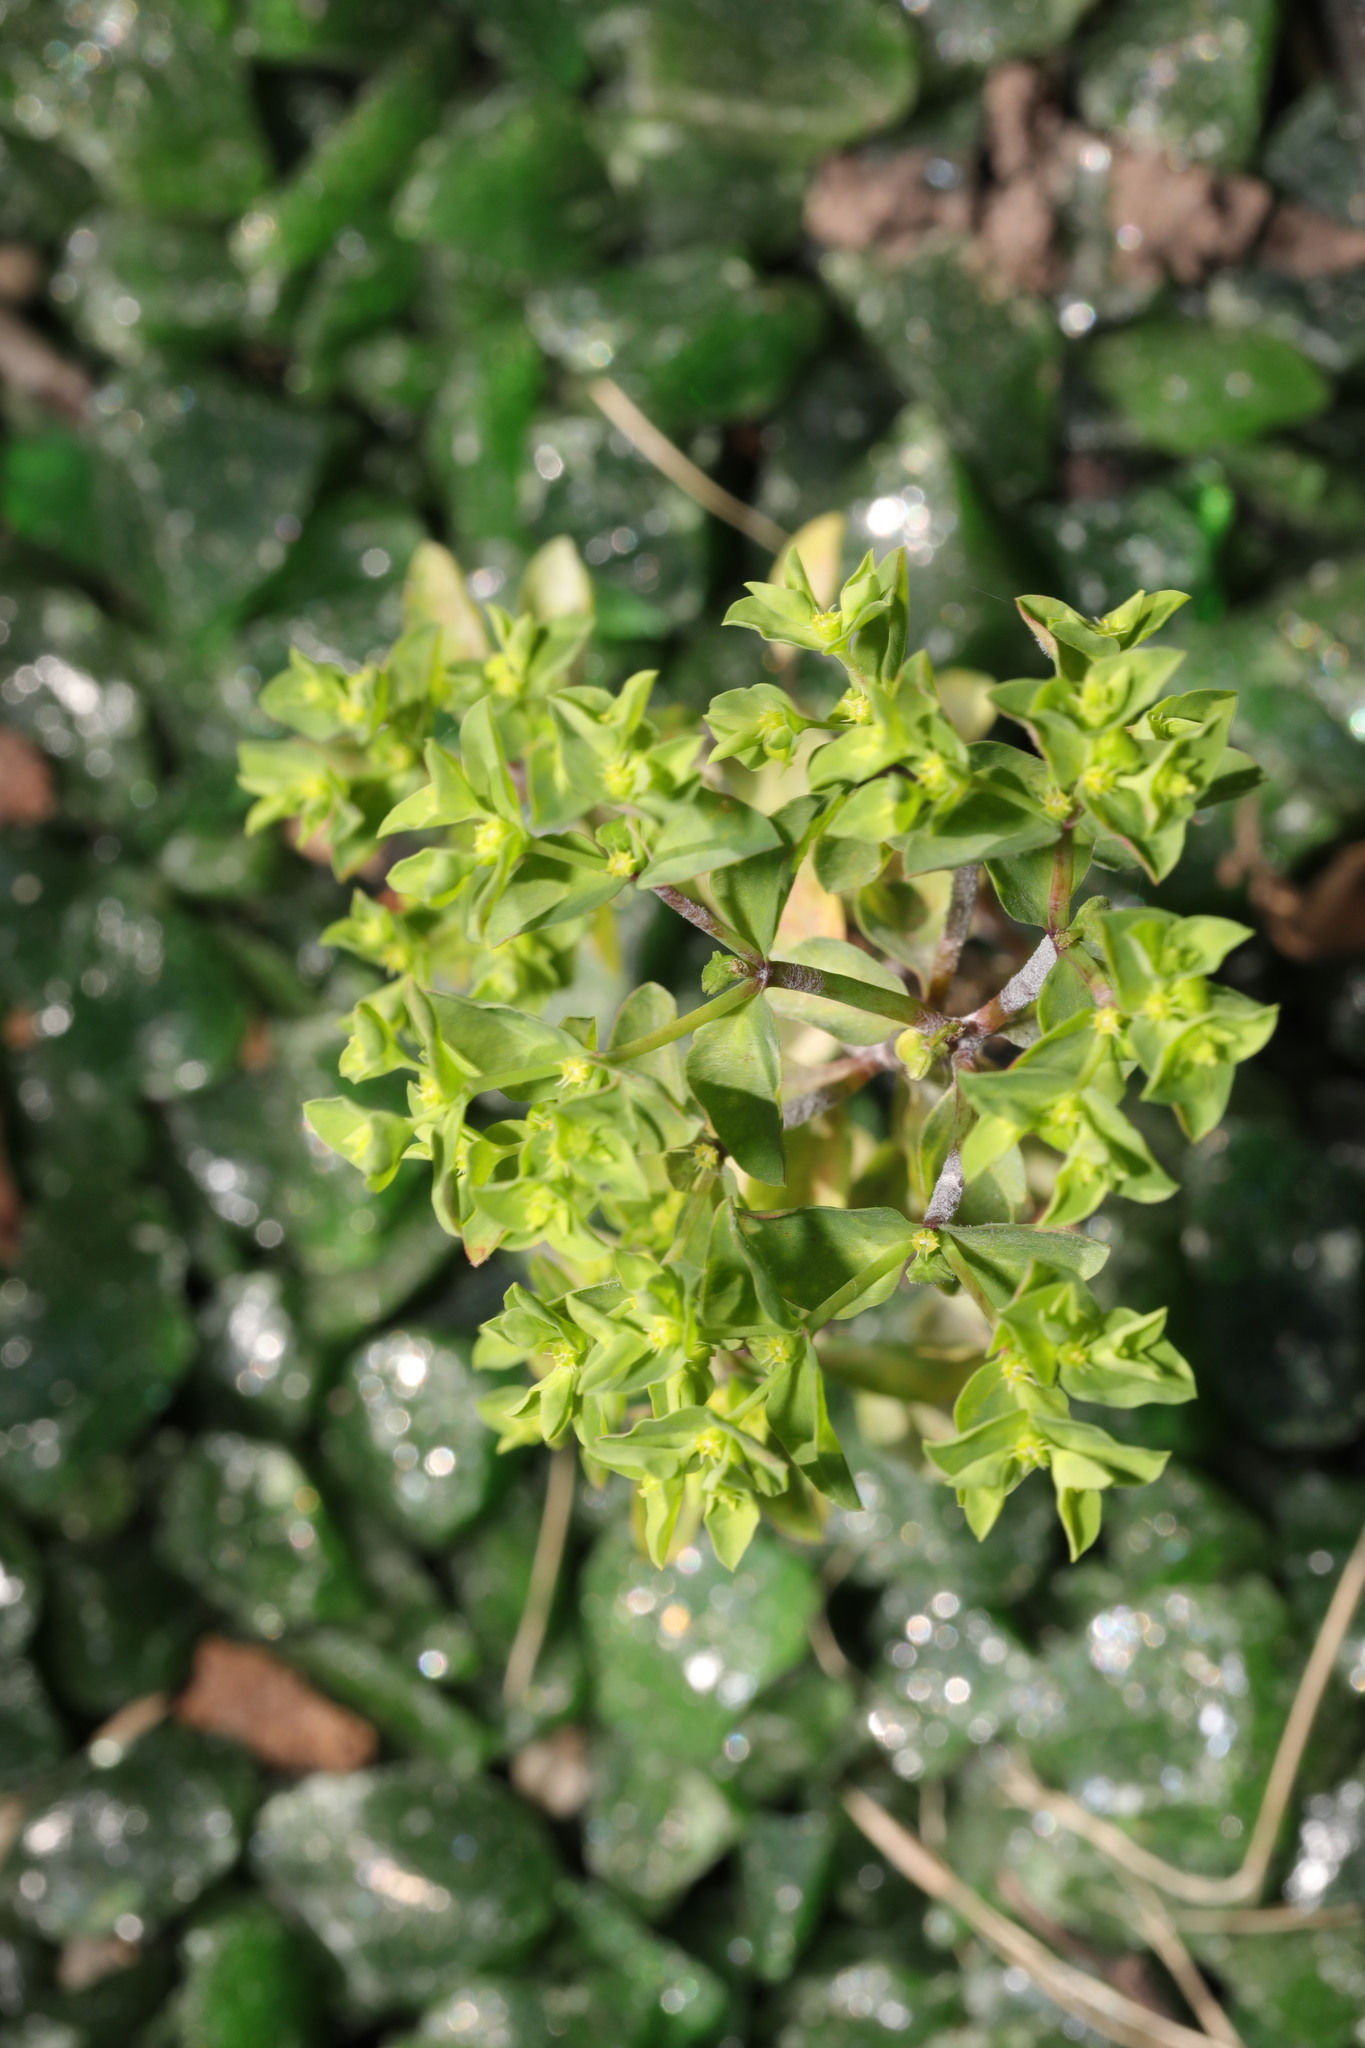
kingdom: Plantae
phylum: Tracheophyta
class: Magnoliopsida
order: Malpighiales
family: Euphorbiaceae
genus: Euphorbia
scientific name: Euphorbia peplus
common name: Petty spurge
